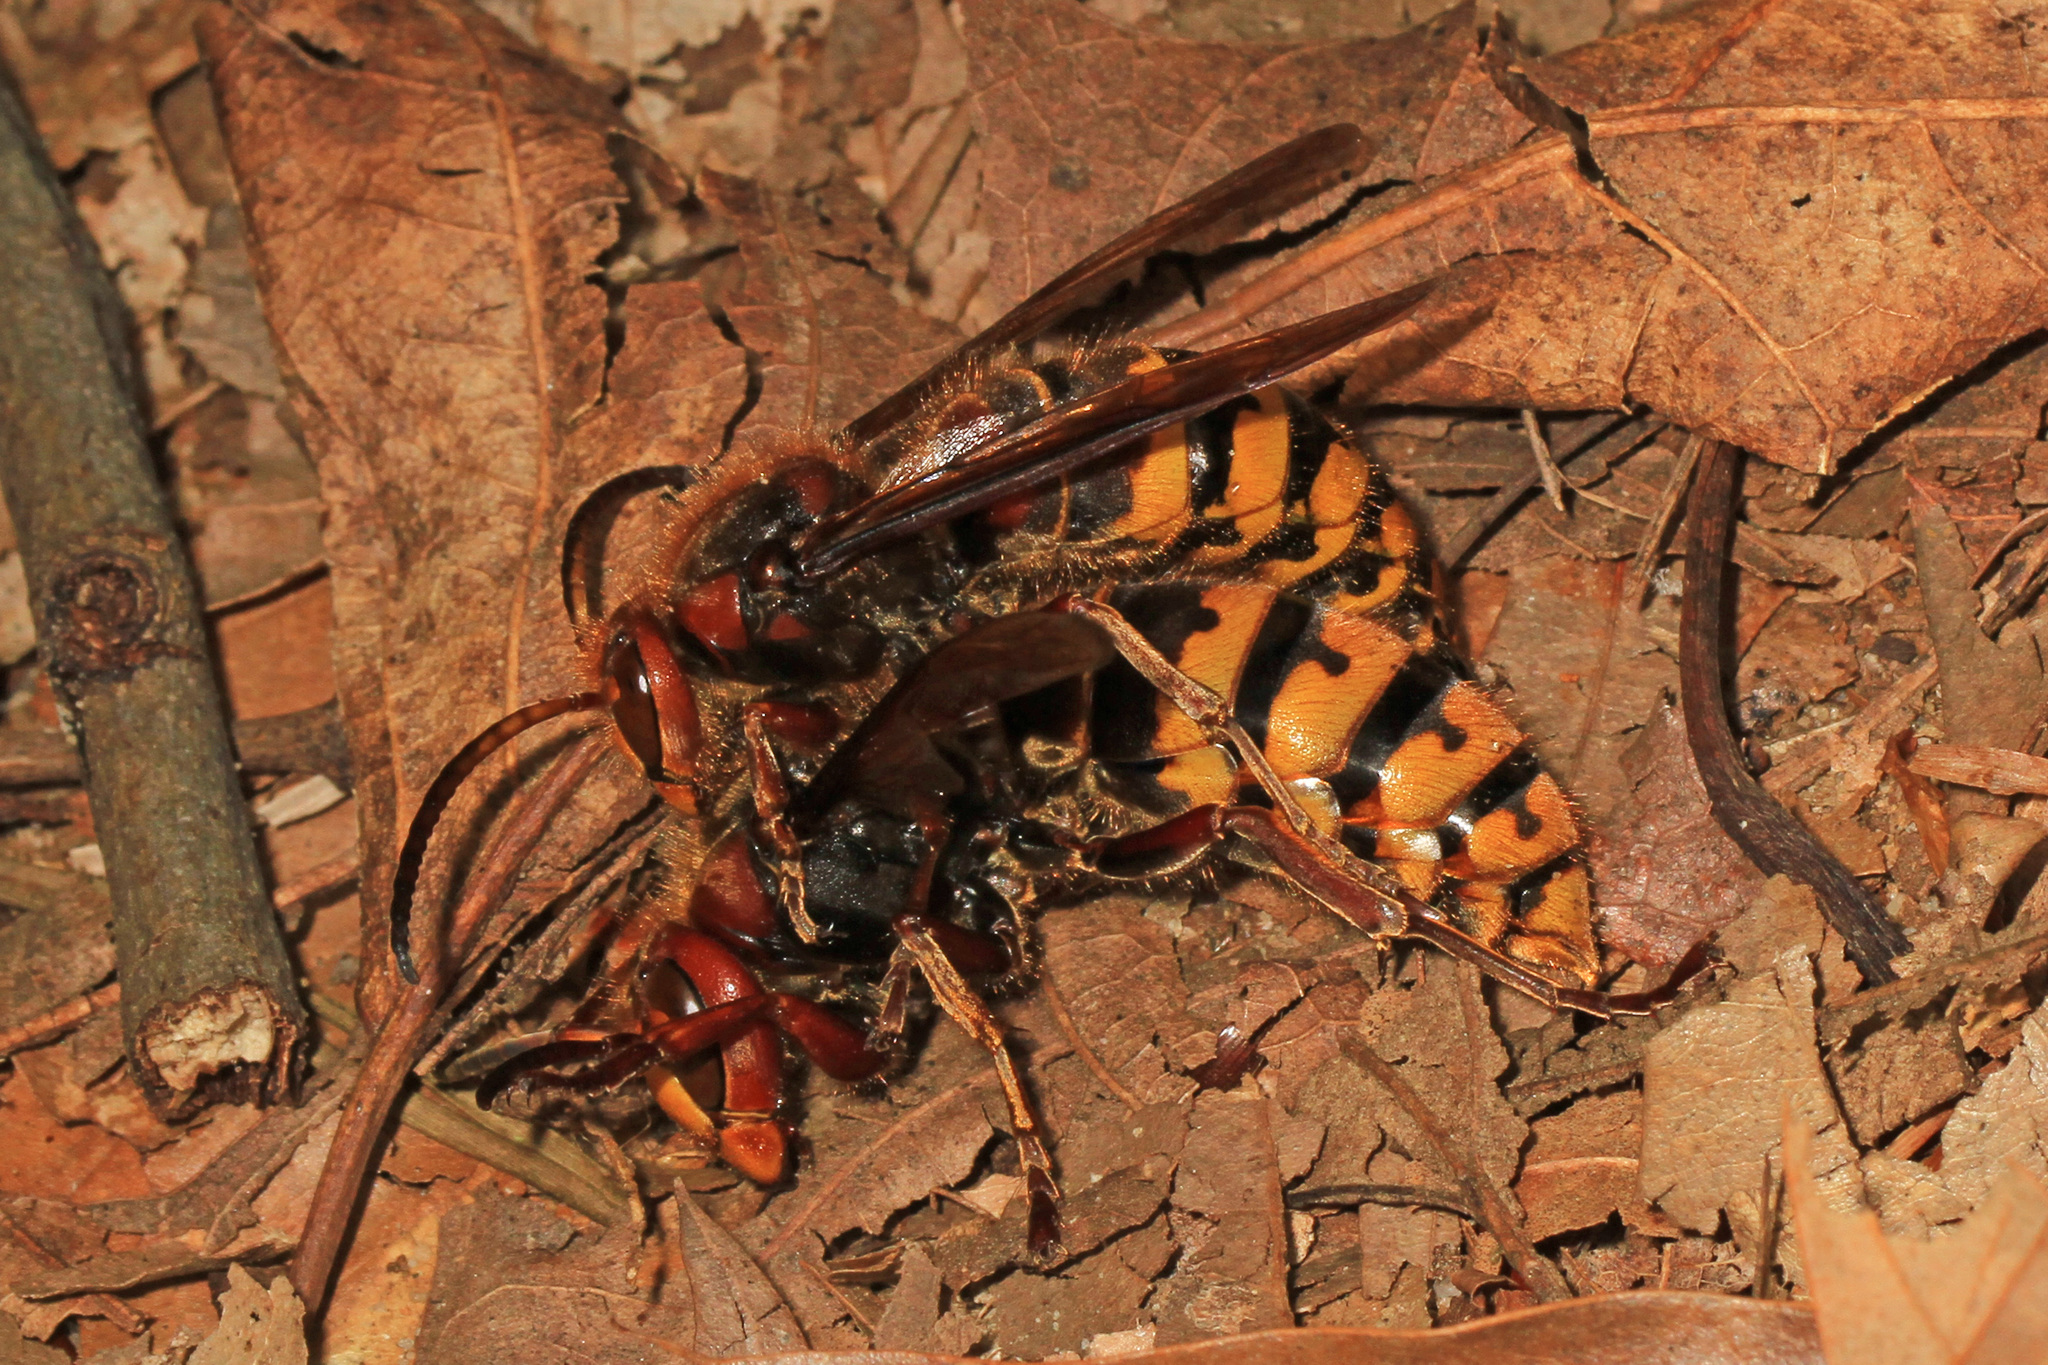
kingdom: Animalia
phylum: Arthropoda
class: Insecta
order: Hymenoptera
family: Vespidae
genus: Vespa
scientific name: Vespa crabro
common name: Hornet
